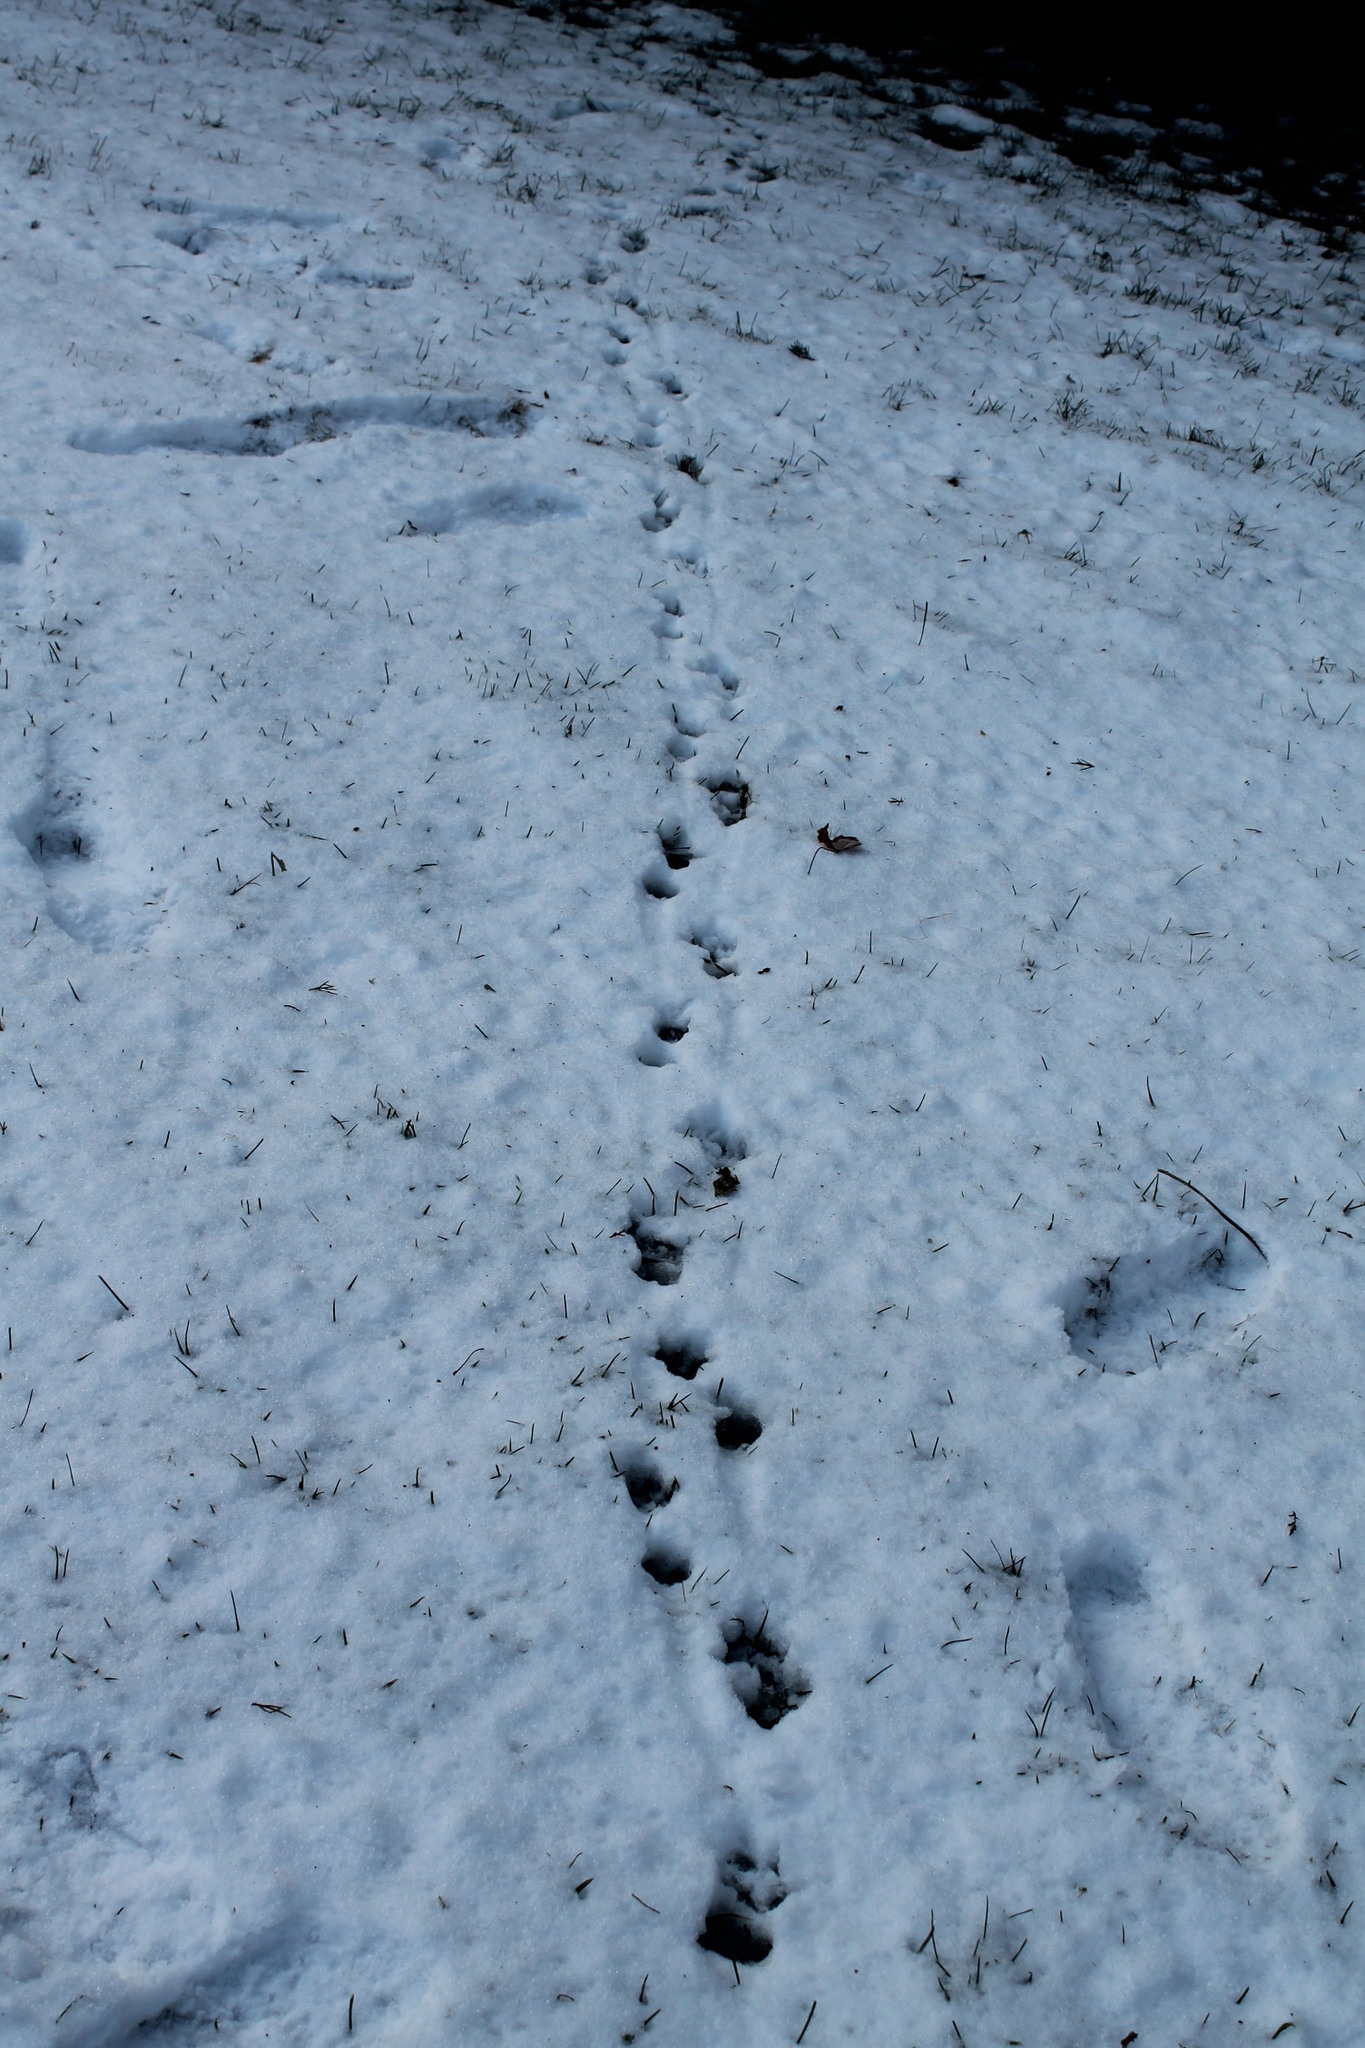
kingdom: Animalia
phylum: Chordata
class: Mammalia
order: Didelphimorphia
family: Didelphidae
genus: Didelphis
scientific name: Didelphis virginiana
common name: Virginia opossum
